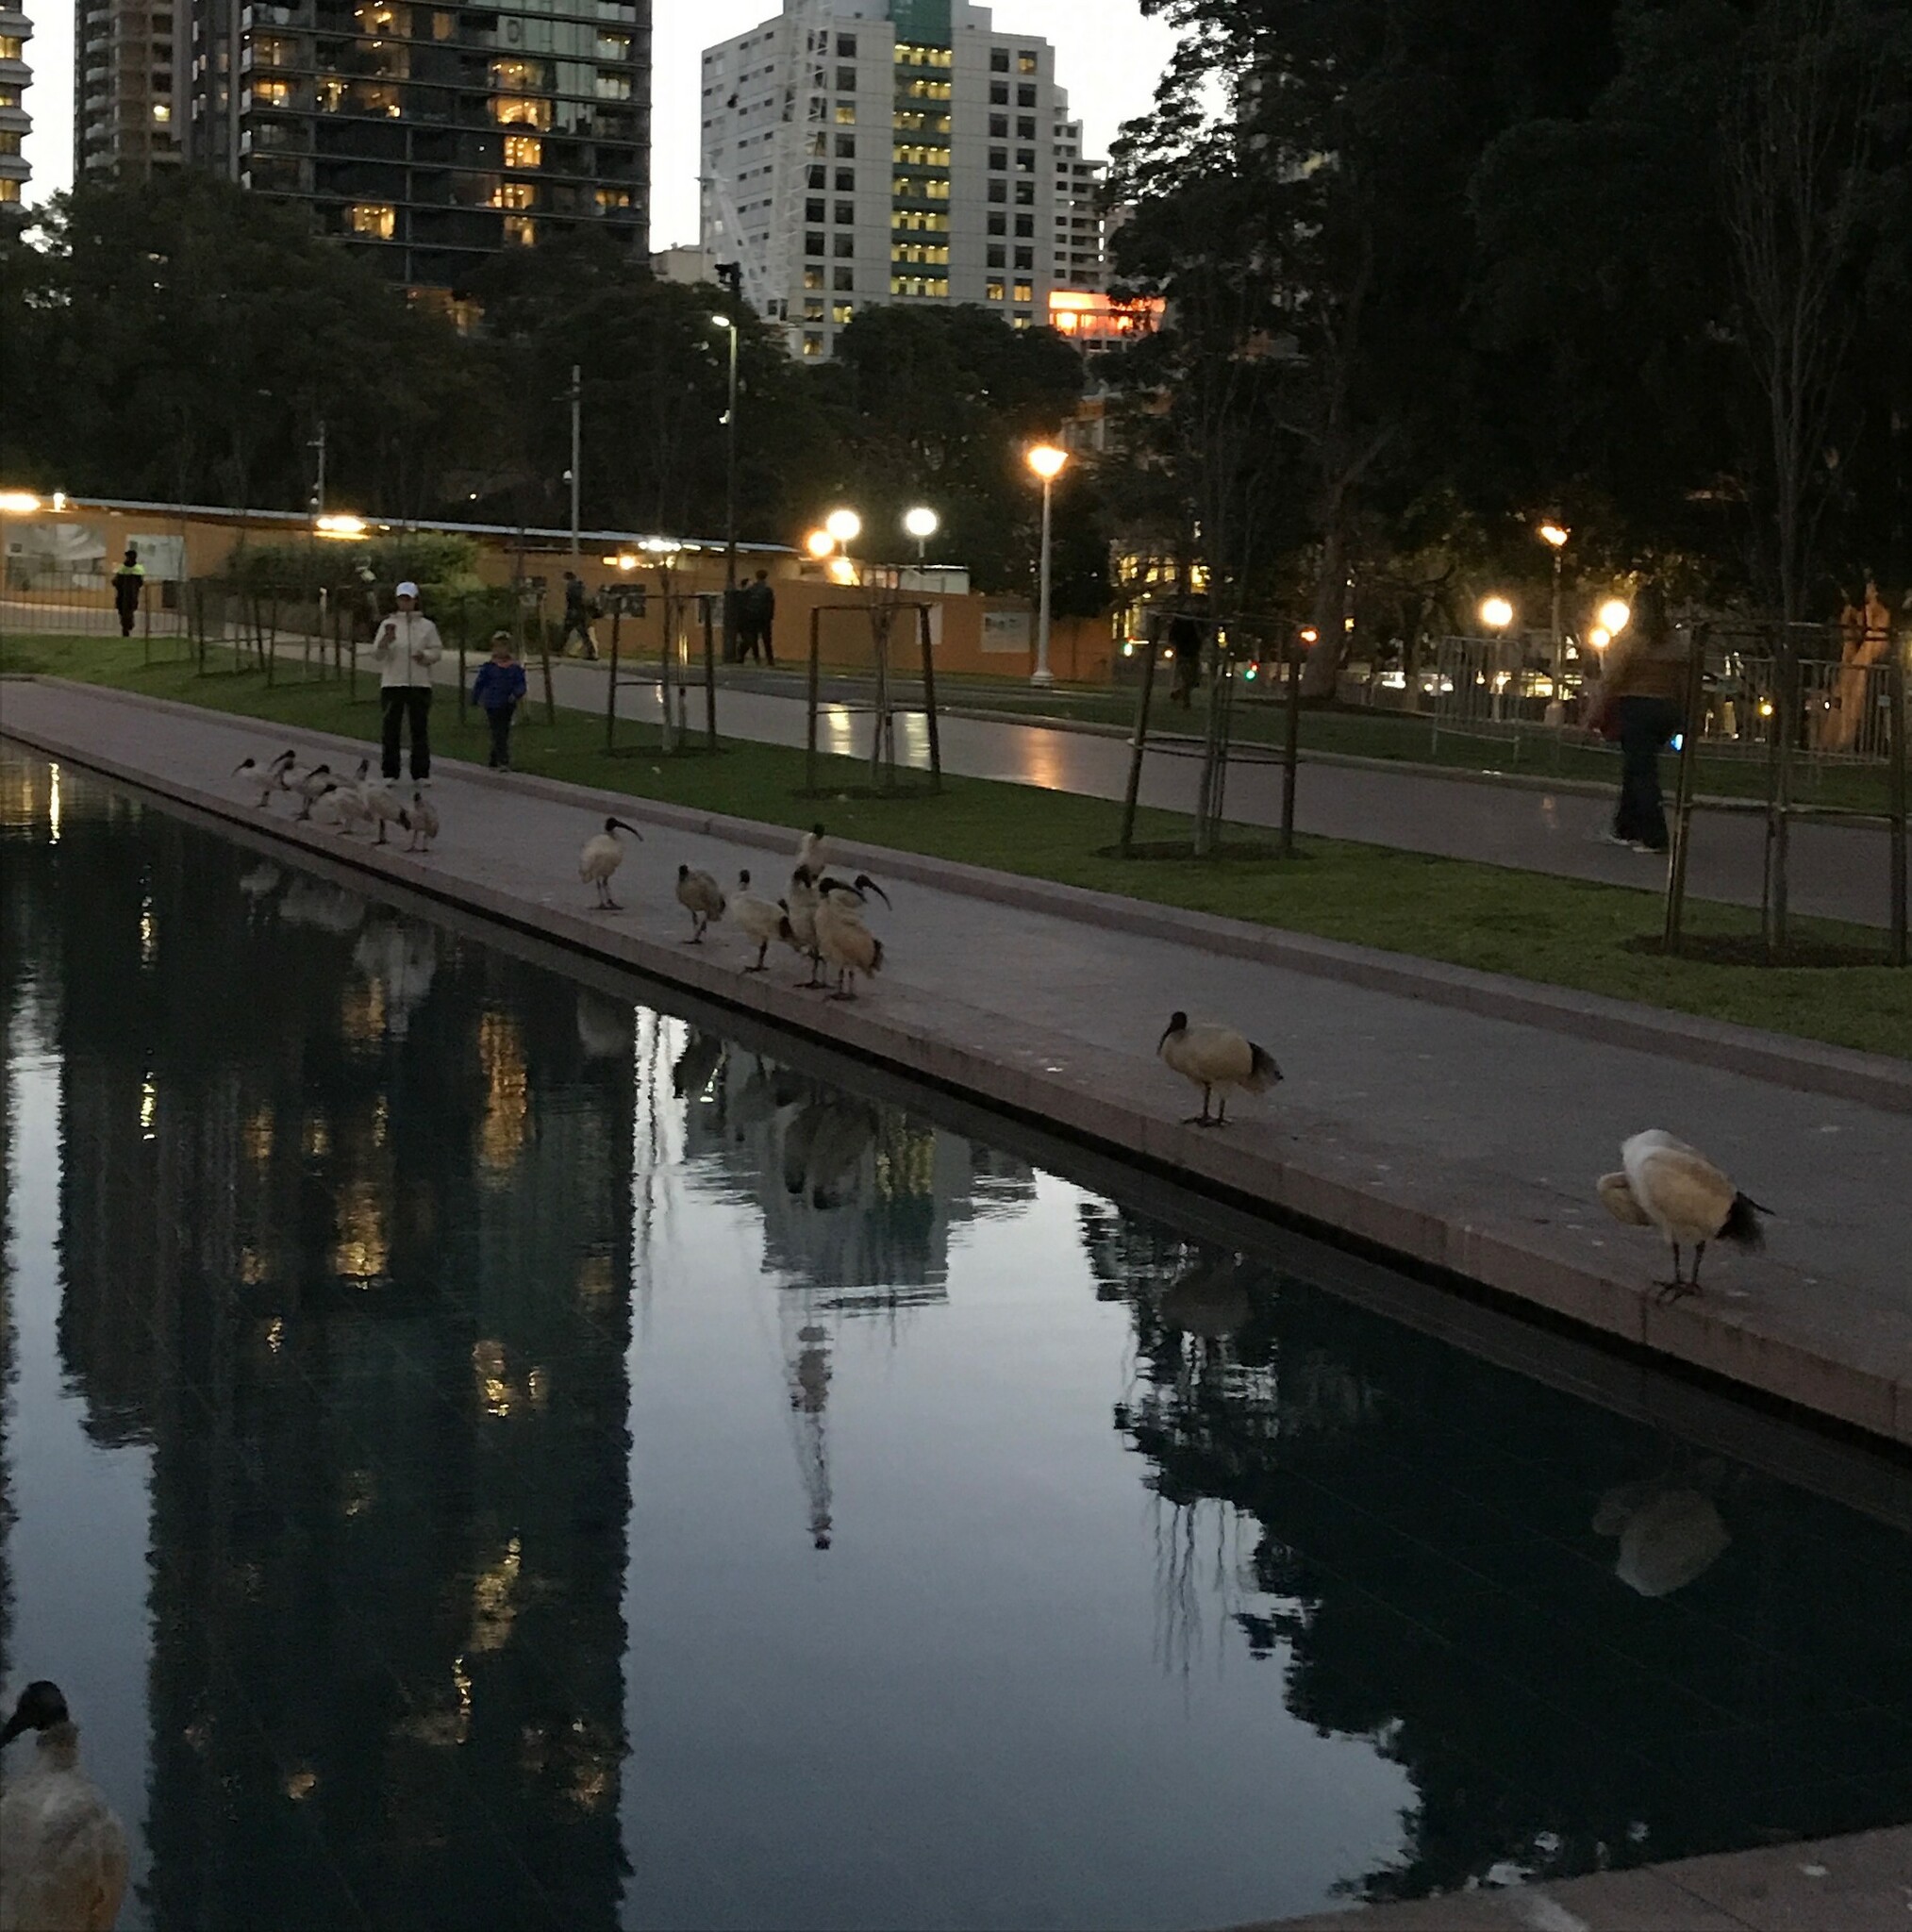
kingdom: Animalia
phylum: Chordata
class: Aves
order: Pelecaniformes
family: Threskiornithidae
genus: Threskiornis
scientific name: Threskiornis molucca
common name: Australian white ibis
